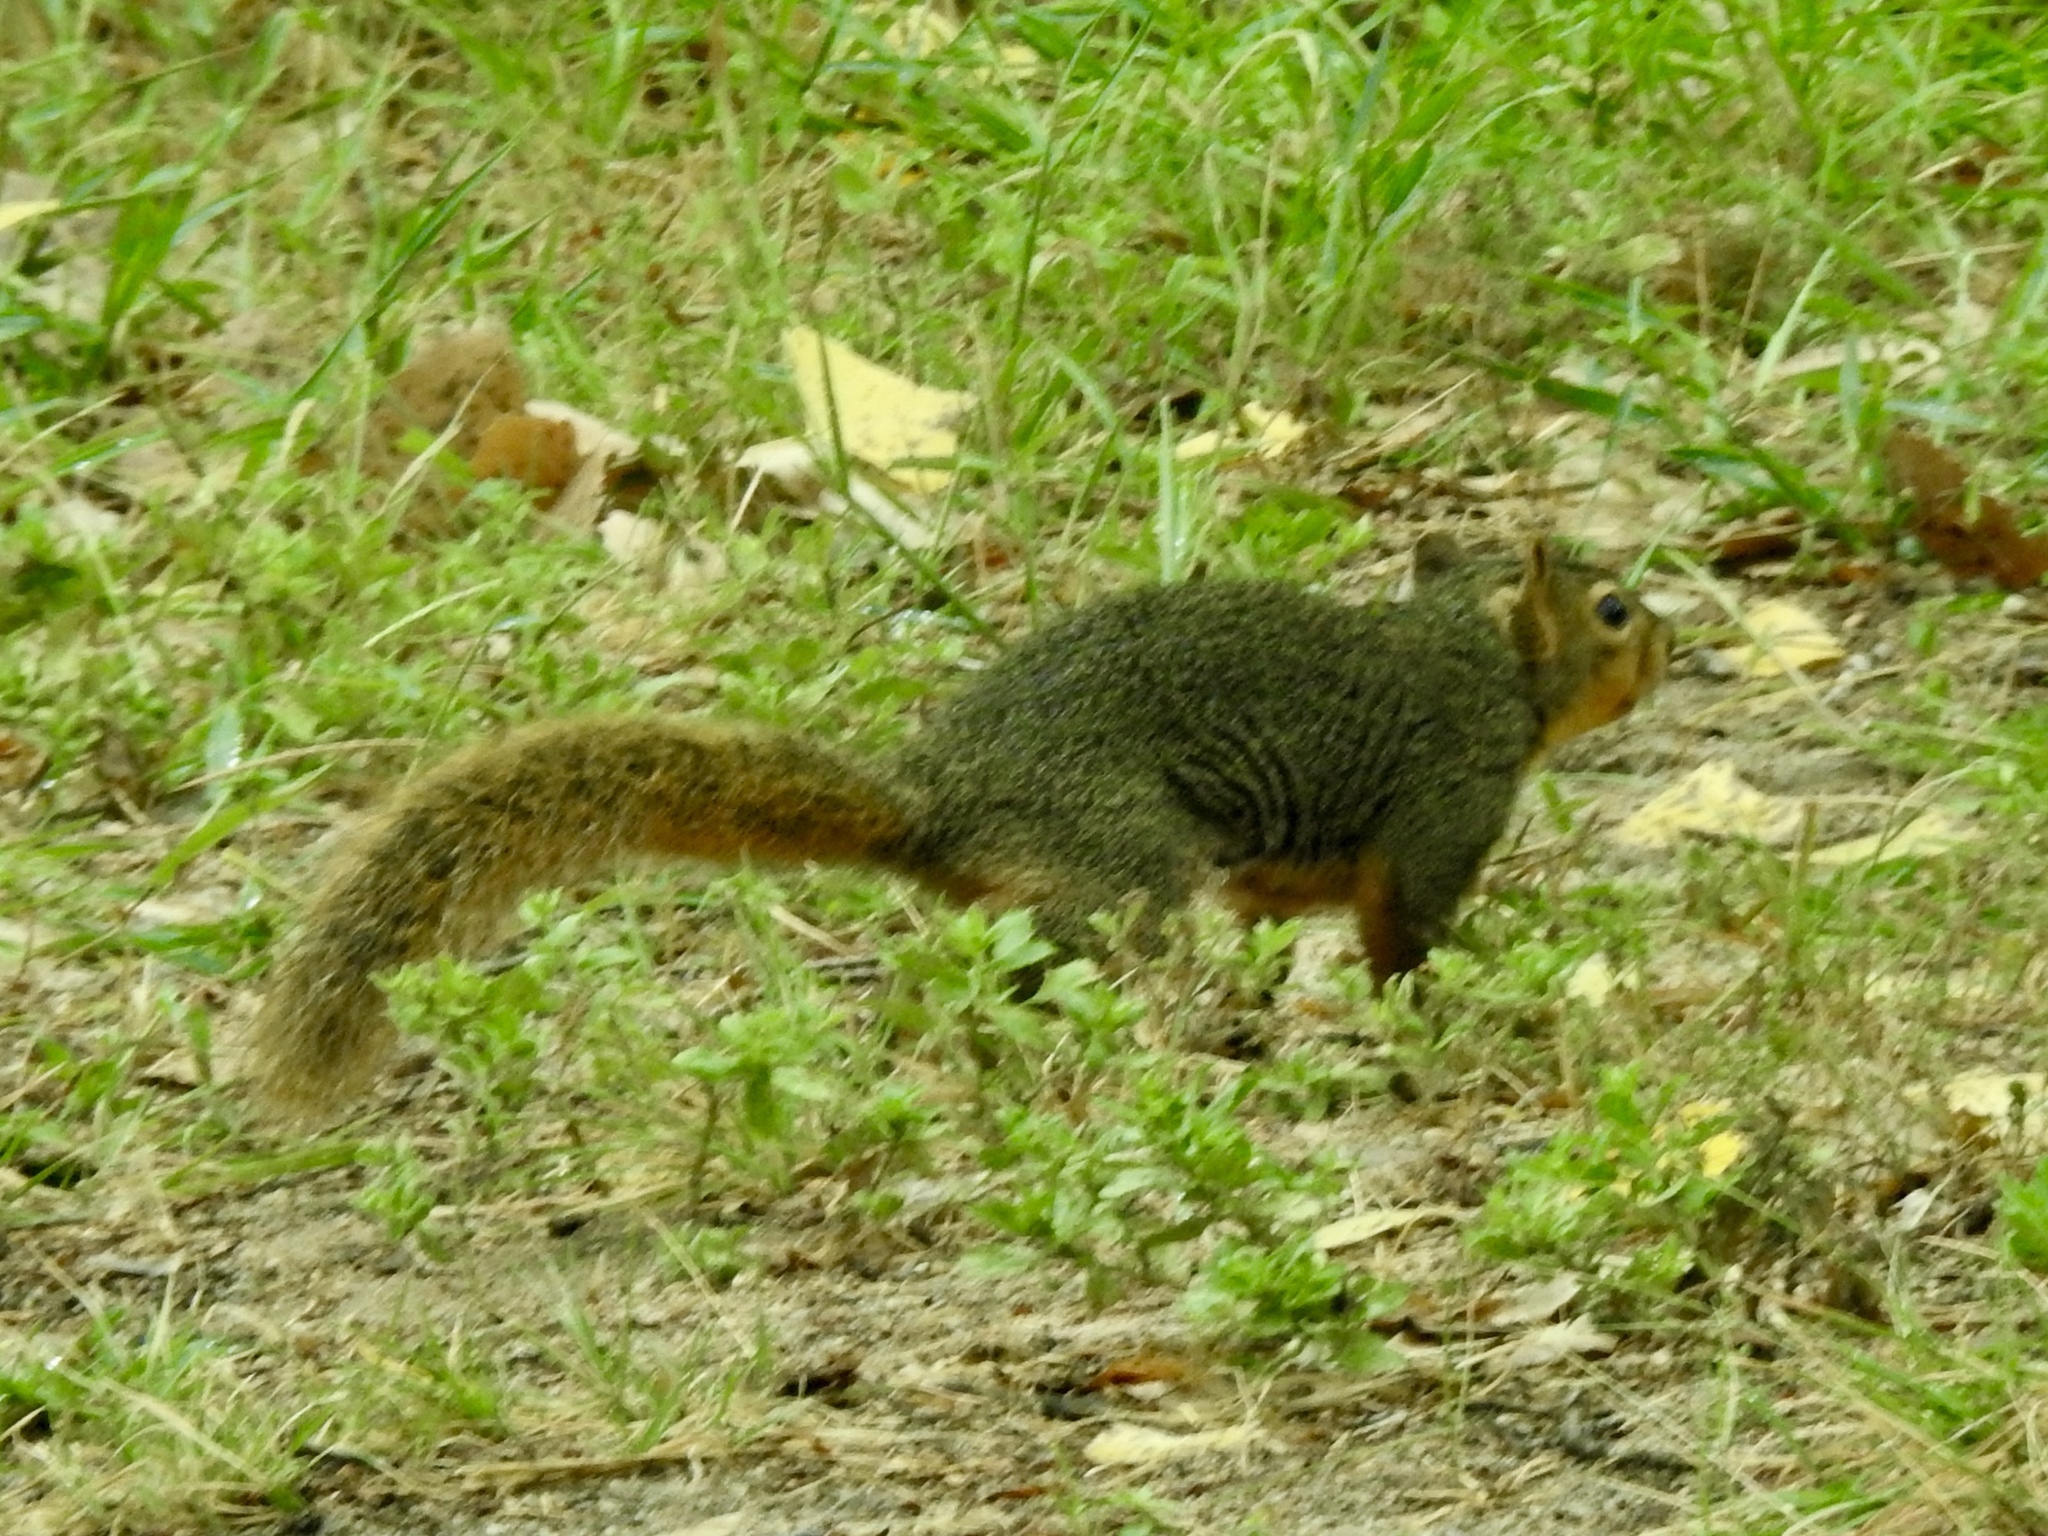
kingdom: Animalia
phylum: Chordata
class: Mammalia
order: Rodentia
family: Sciuridae
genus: Sciurus
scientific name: Sciurus niger
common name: Fox squirrel
